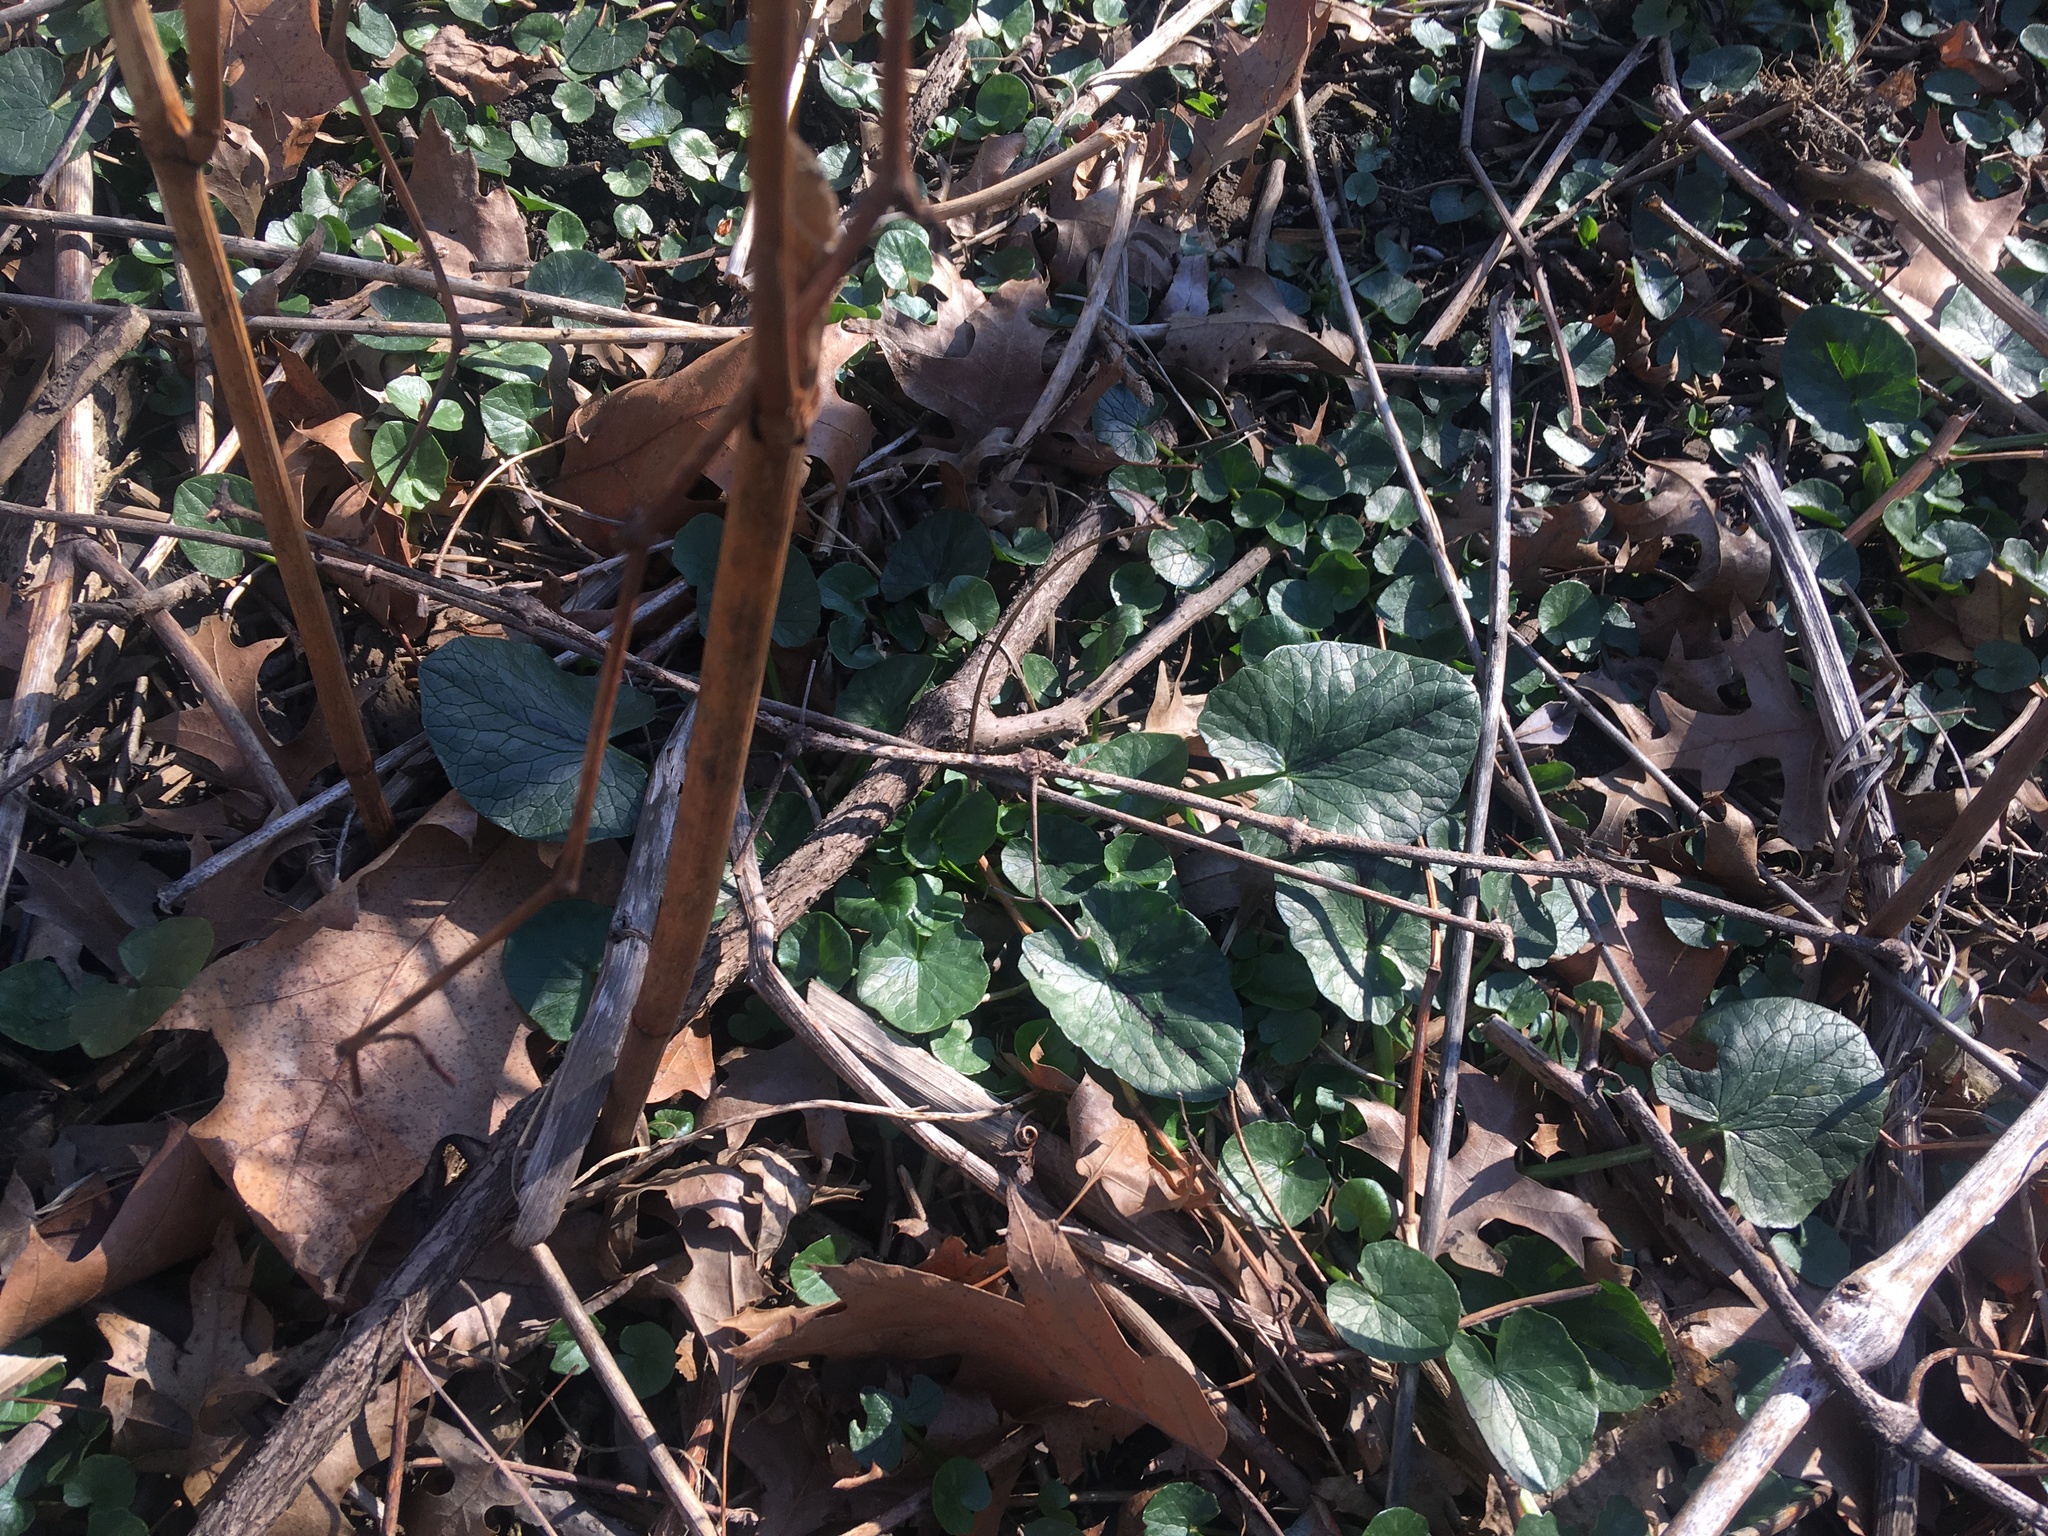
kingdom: Plantae
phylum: Tracheophyta
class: Magnoliopsida
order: Ranunculales
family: Ranunculaceae
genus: Ficaria
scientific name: Ficaria verna
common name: Lesser celandine
